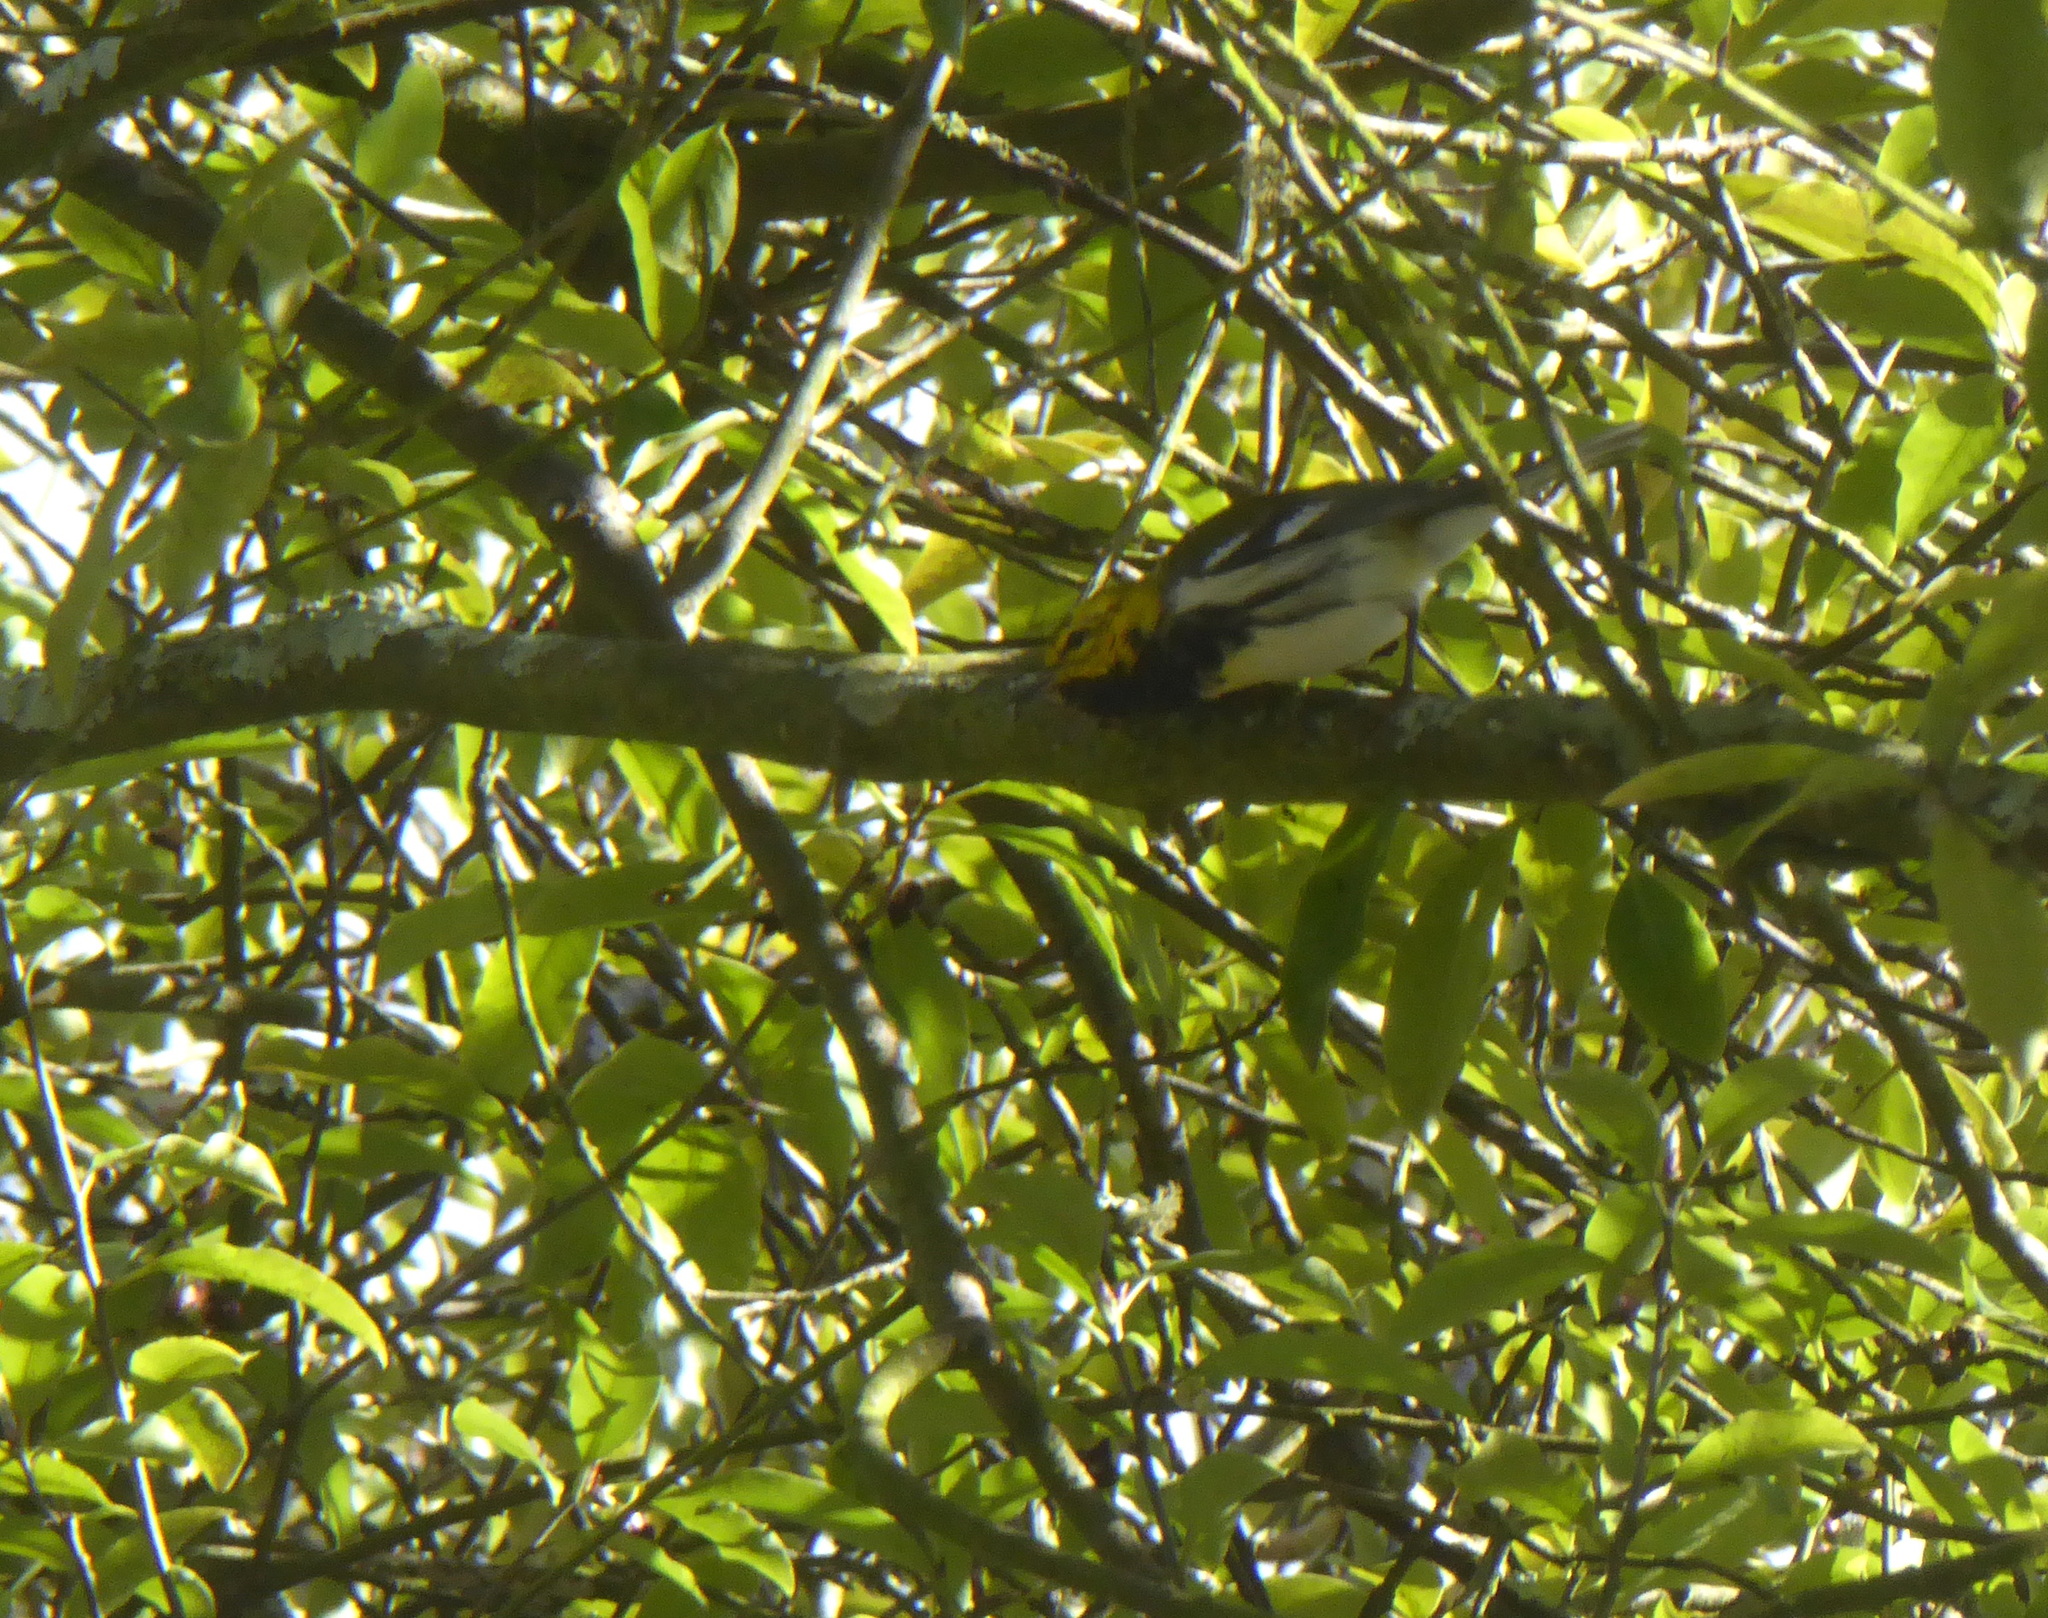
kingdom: Animalia
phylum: Chordata
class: Aves
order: Passeriformes
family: Parulidae
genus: Setophaga
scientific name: Setophaga virens
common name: Black-throated green warbler
